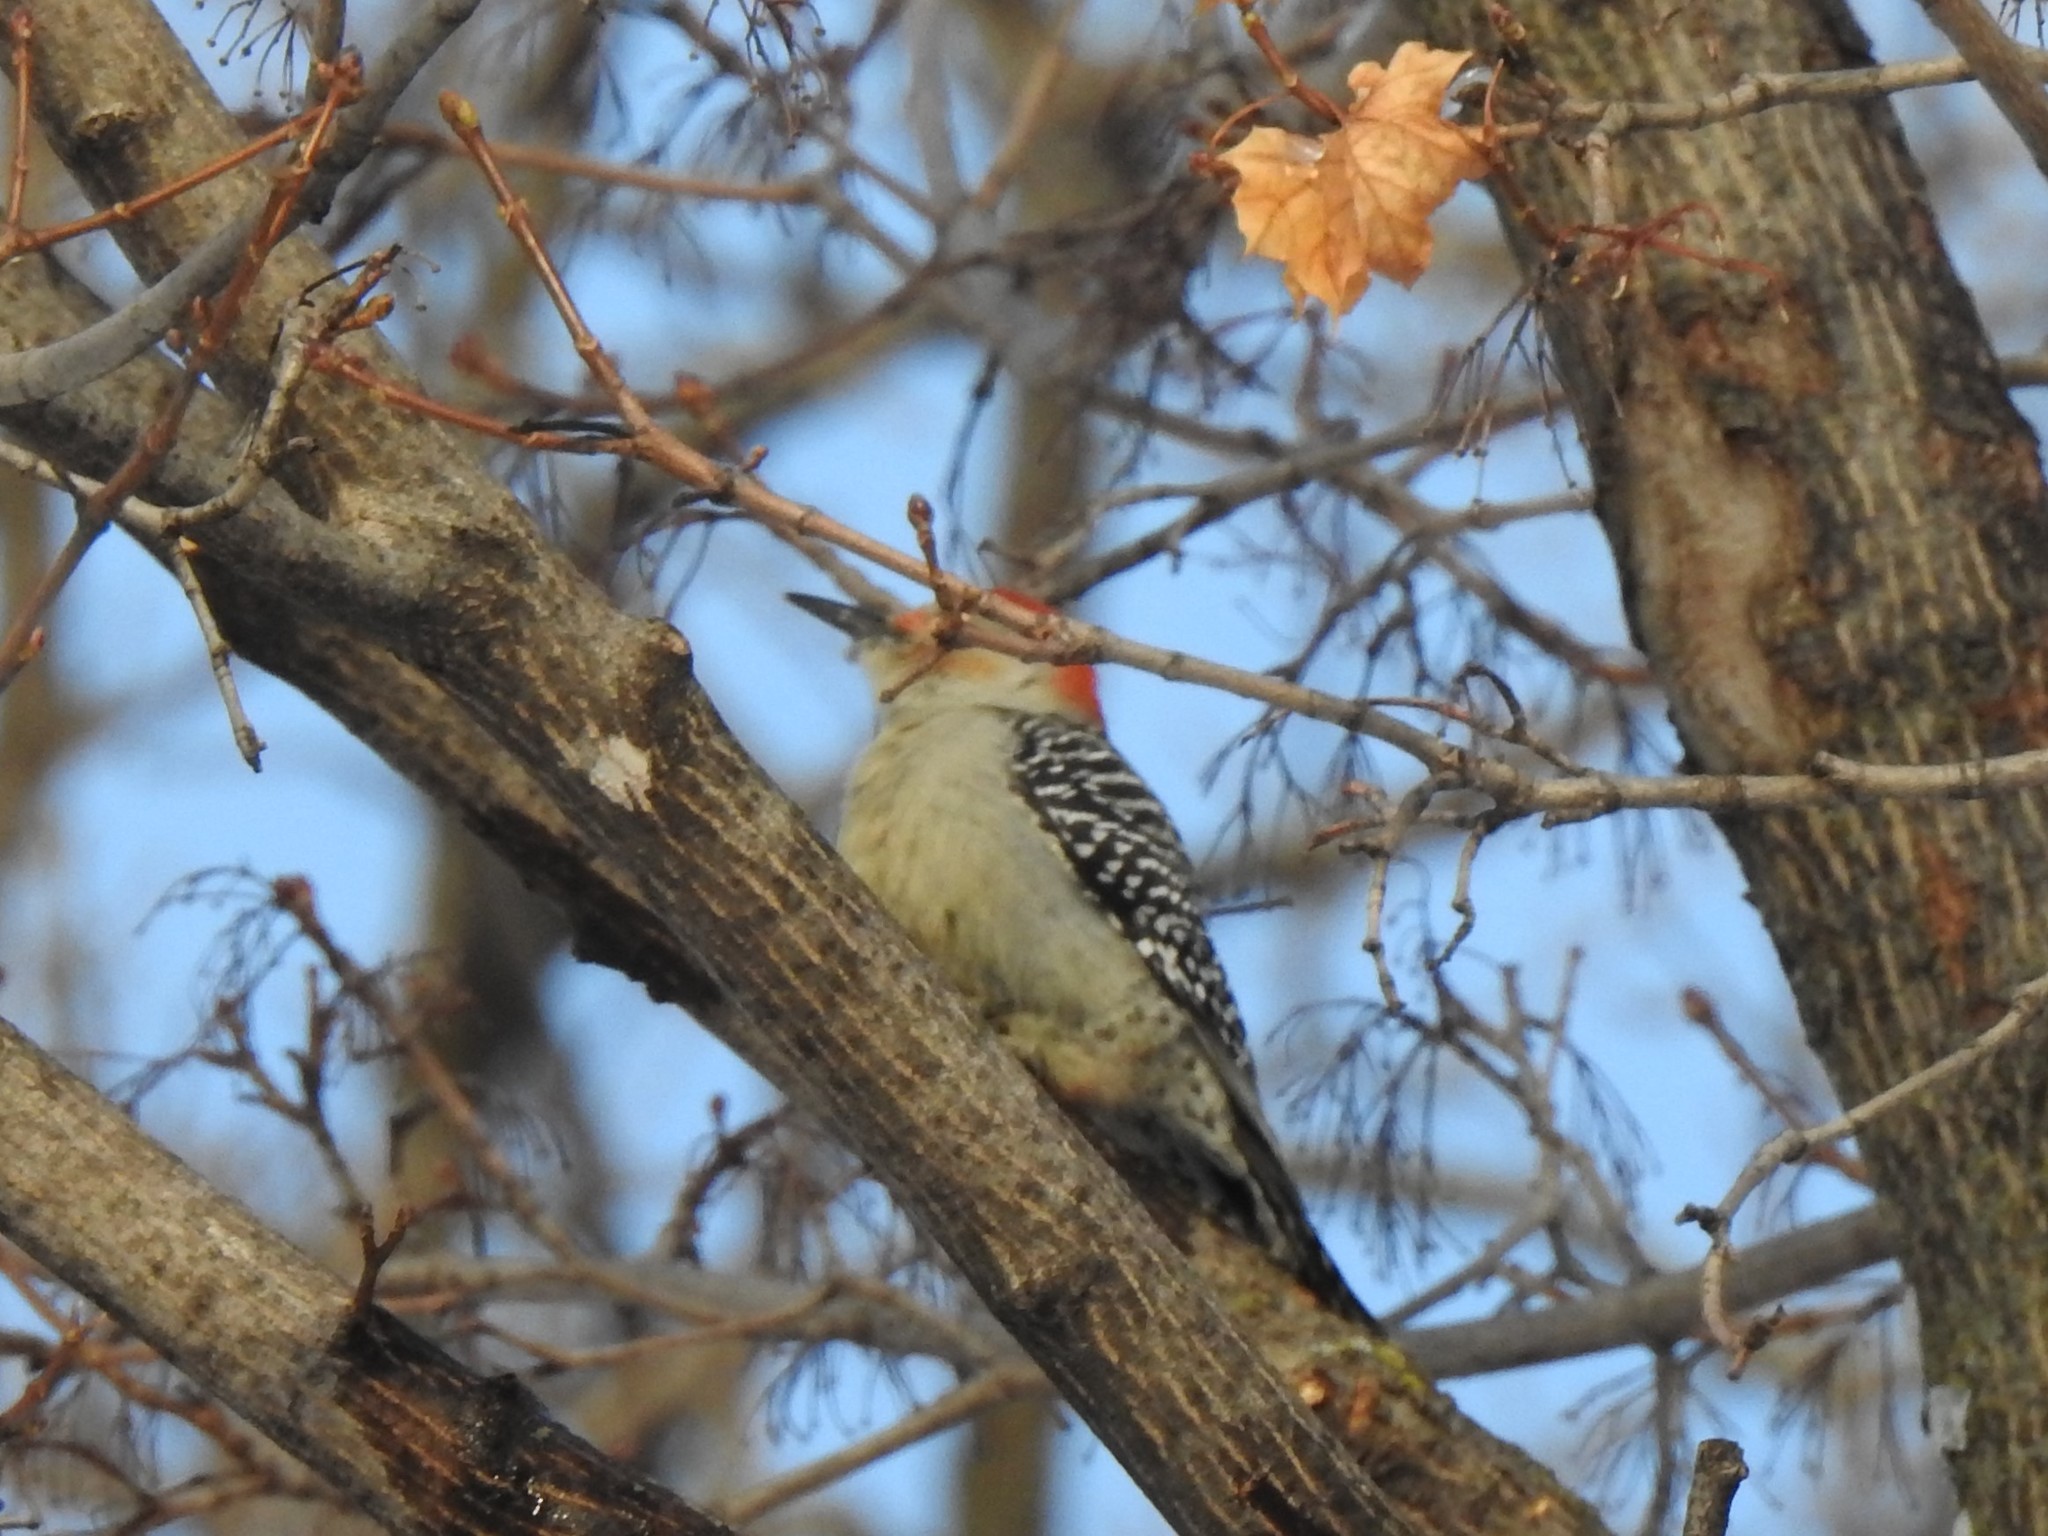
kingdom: Animalia
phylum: Chordata
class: Aves
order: Piciformes
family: Picidae
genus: Melanerpes
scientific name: Melanerpes carolinus
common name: Red-bellied woodpecker
